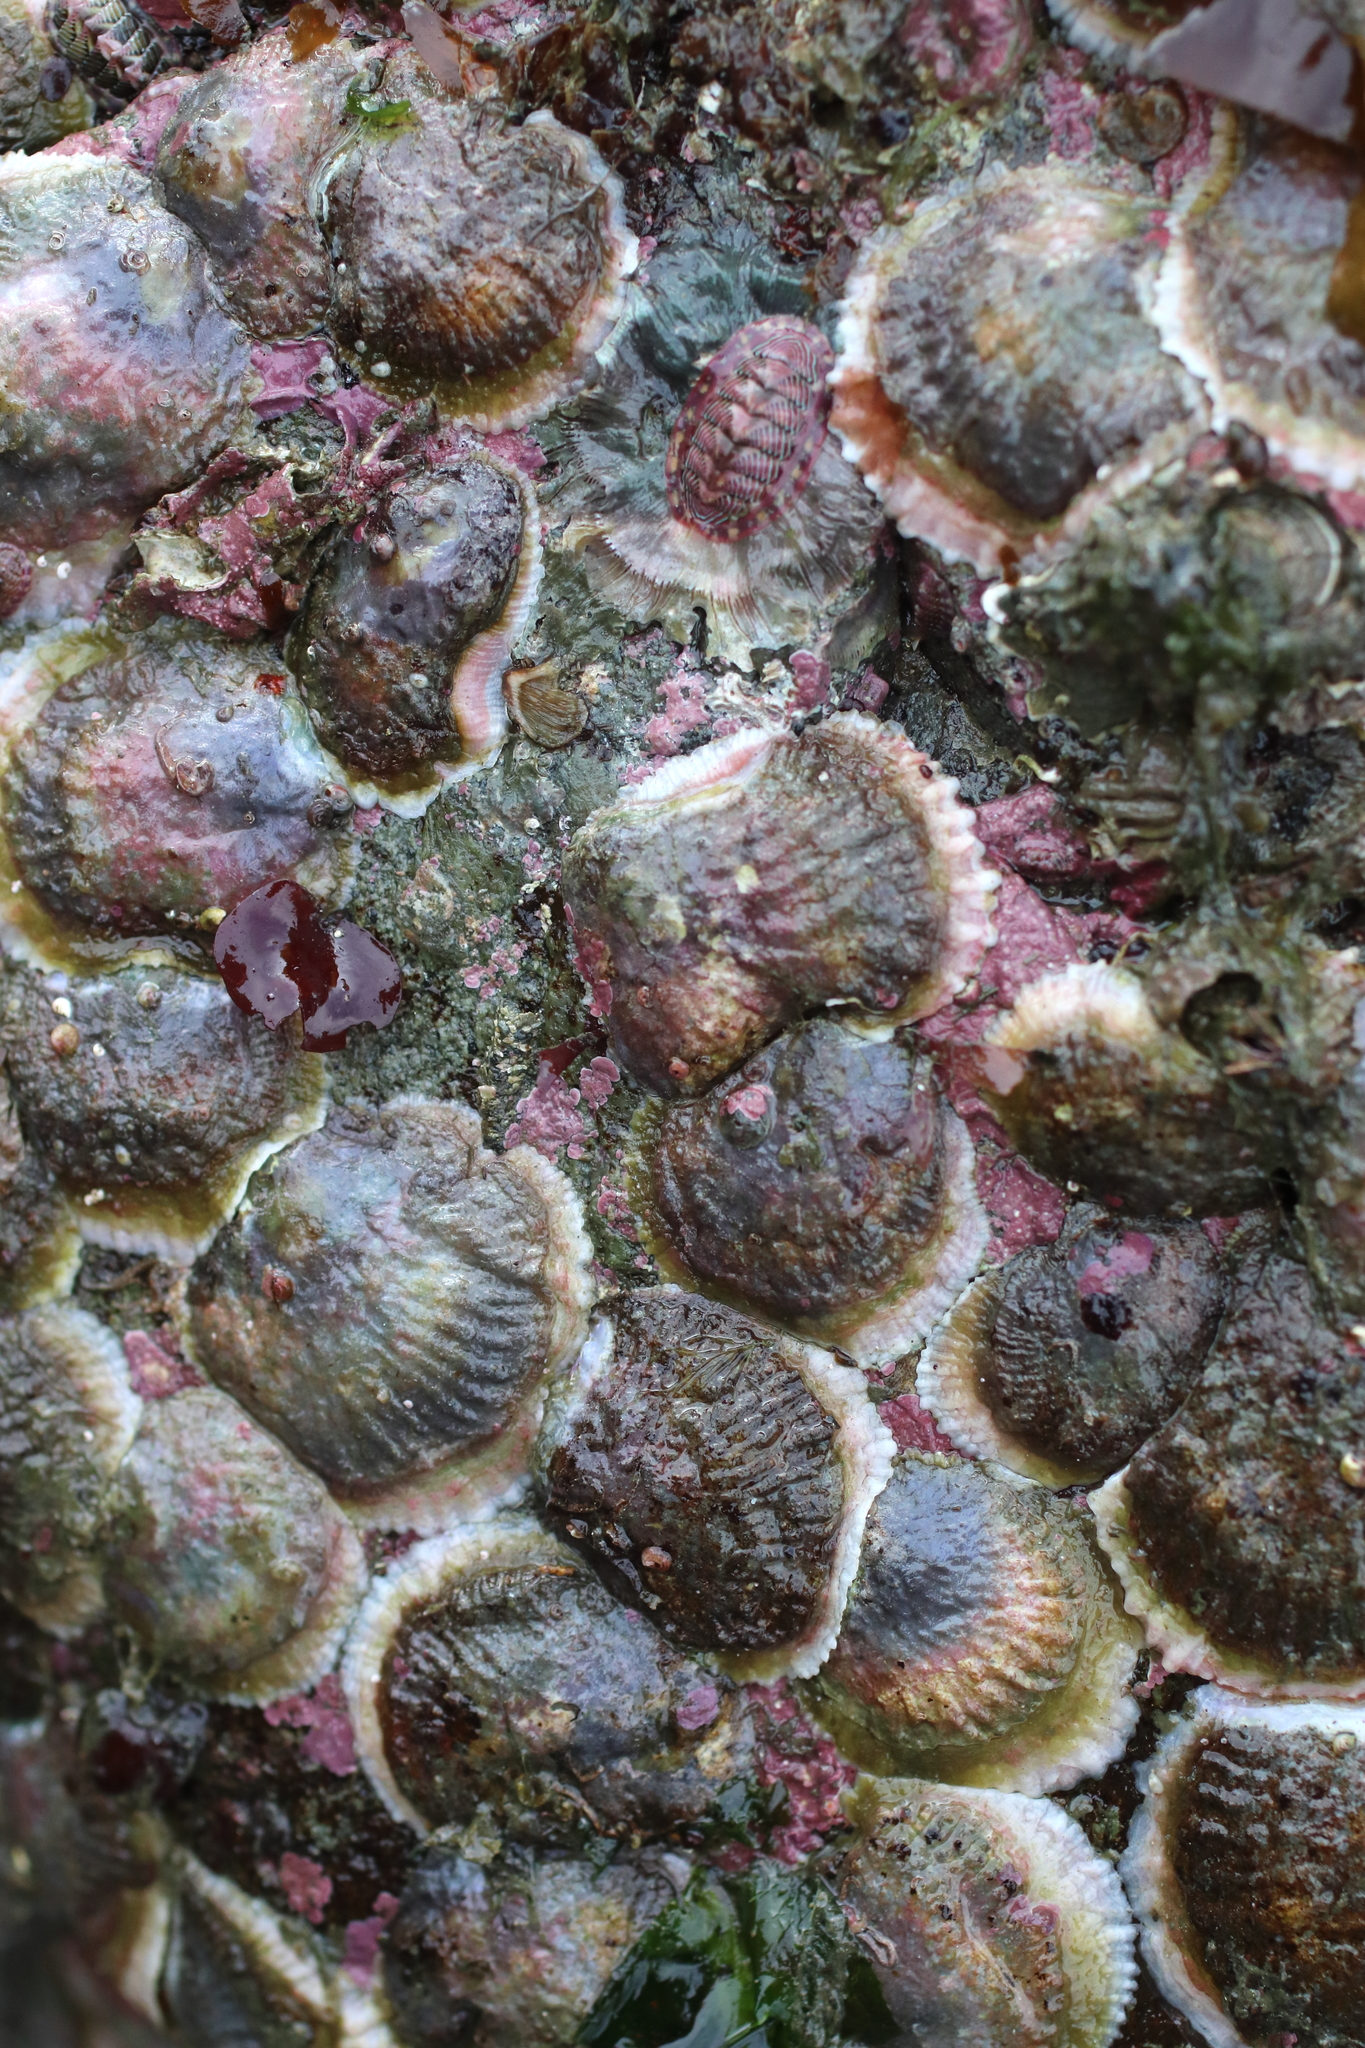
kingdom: Animalia
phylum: Mollusca
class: Bivalvia
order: Pectinida
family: Anomiidae
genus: Pododesmus
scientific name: Pododesmus macrochisma
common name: Alaska jingle
